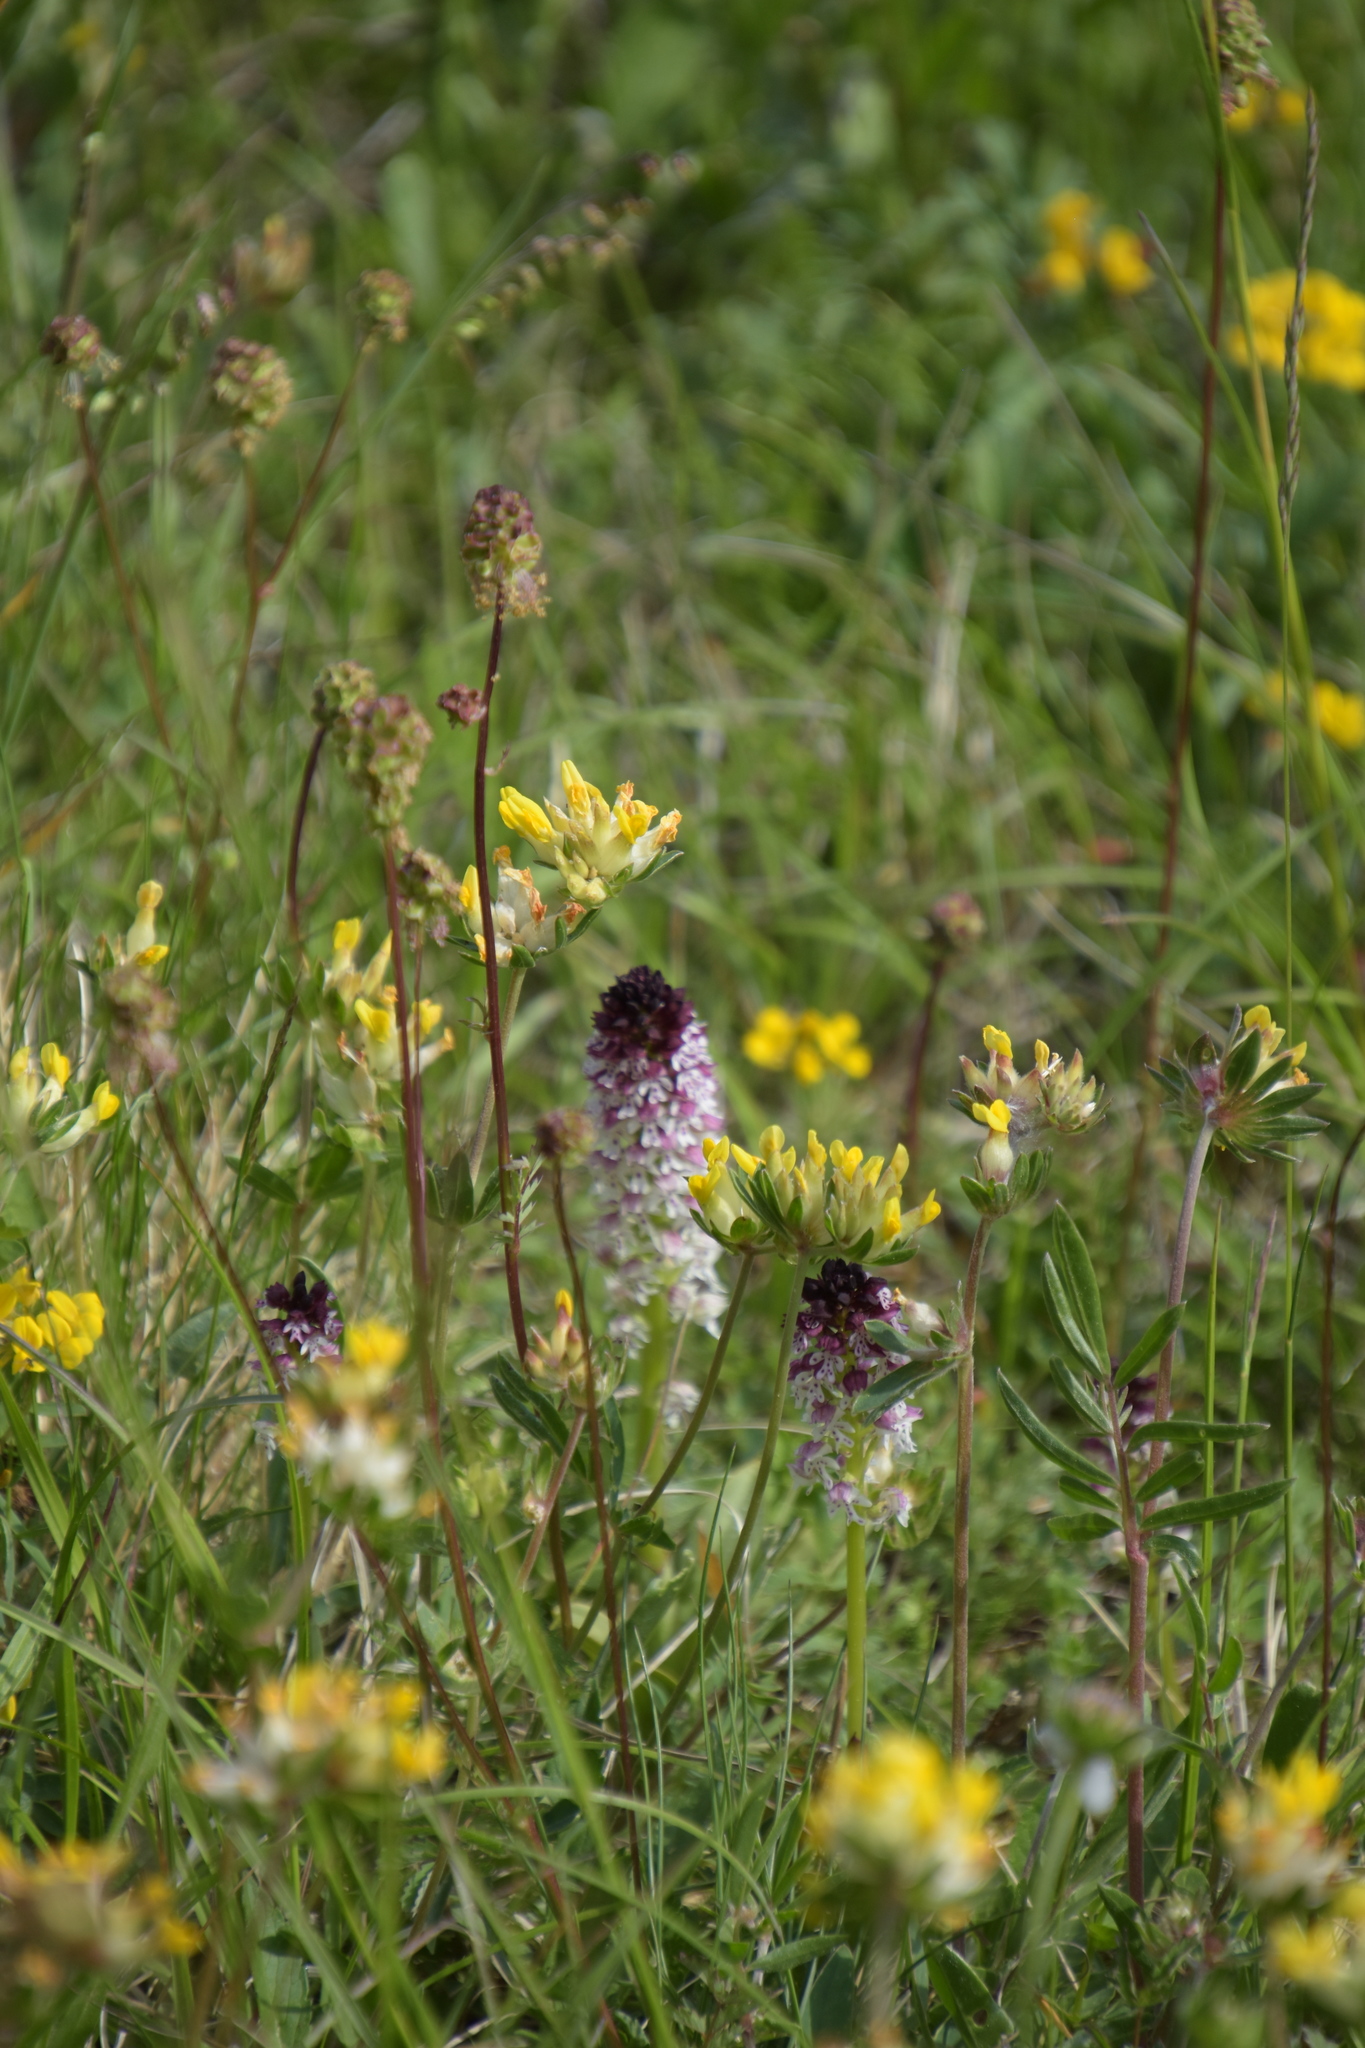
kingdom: Plantae
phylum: Tracheophyta
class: Liliopsida
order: Asparagales
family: Orchidaceae
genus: Neotinea
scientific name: Neotinea ustulata
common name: Burnt orchid
